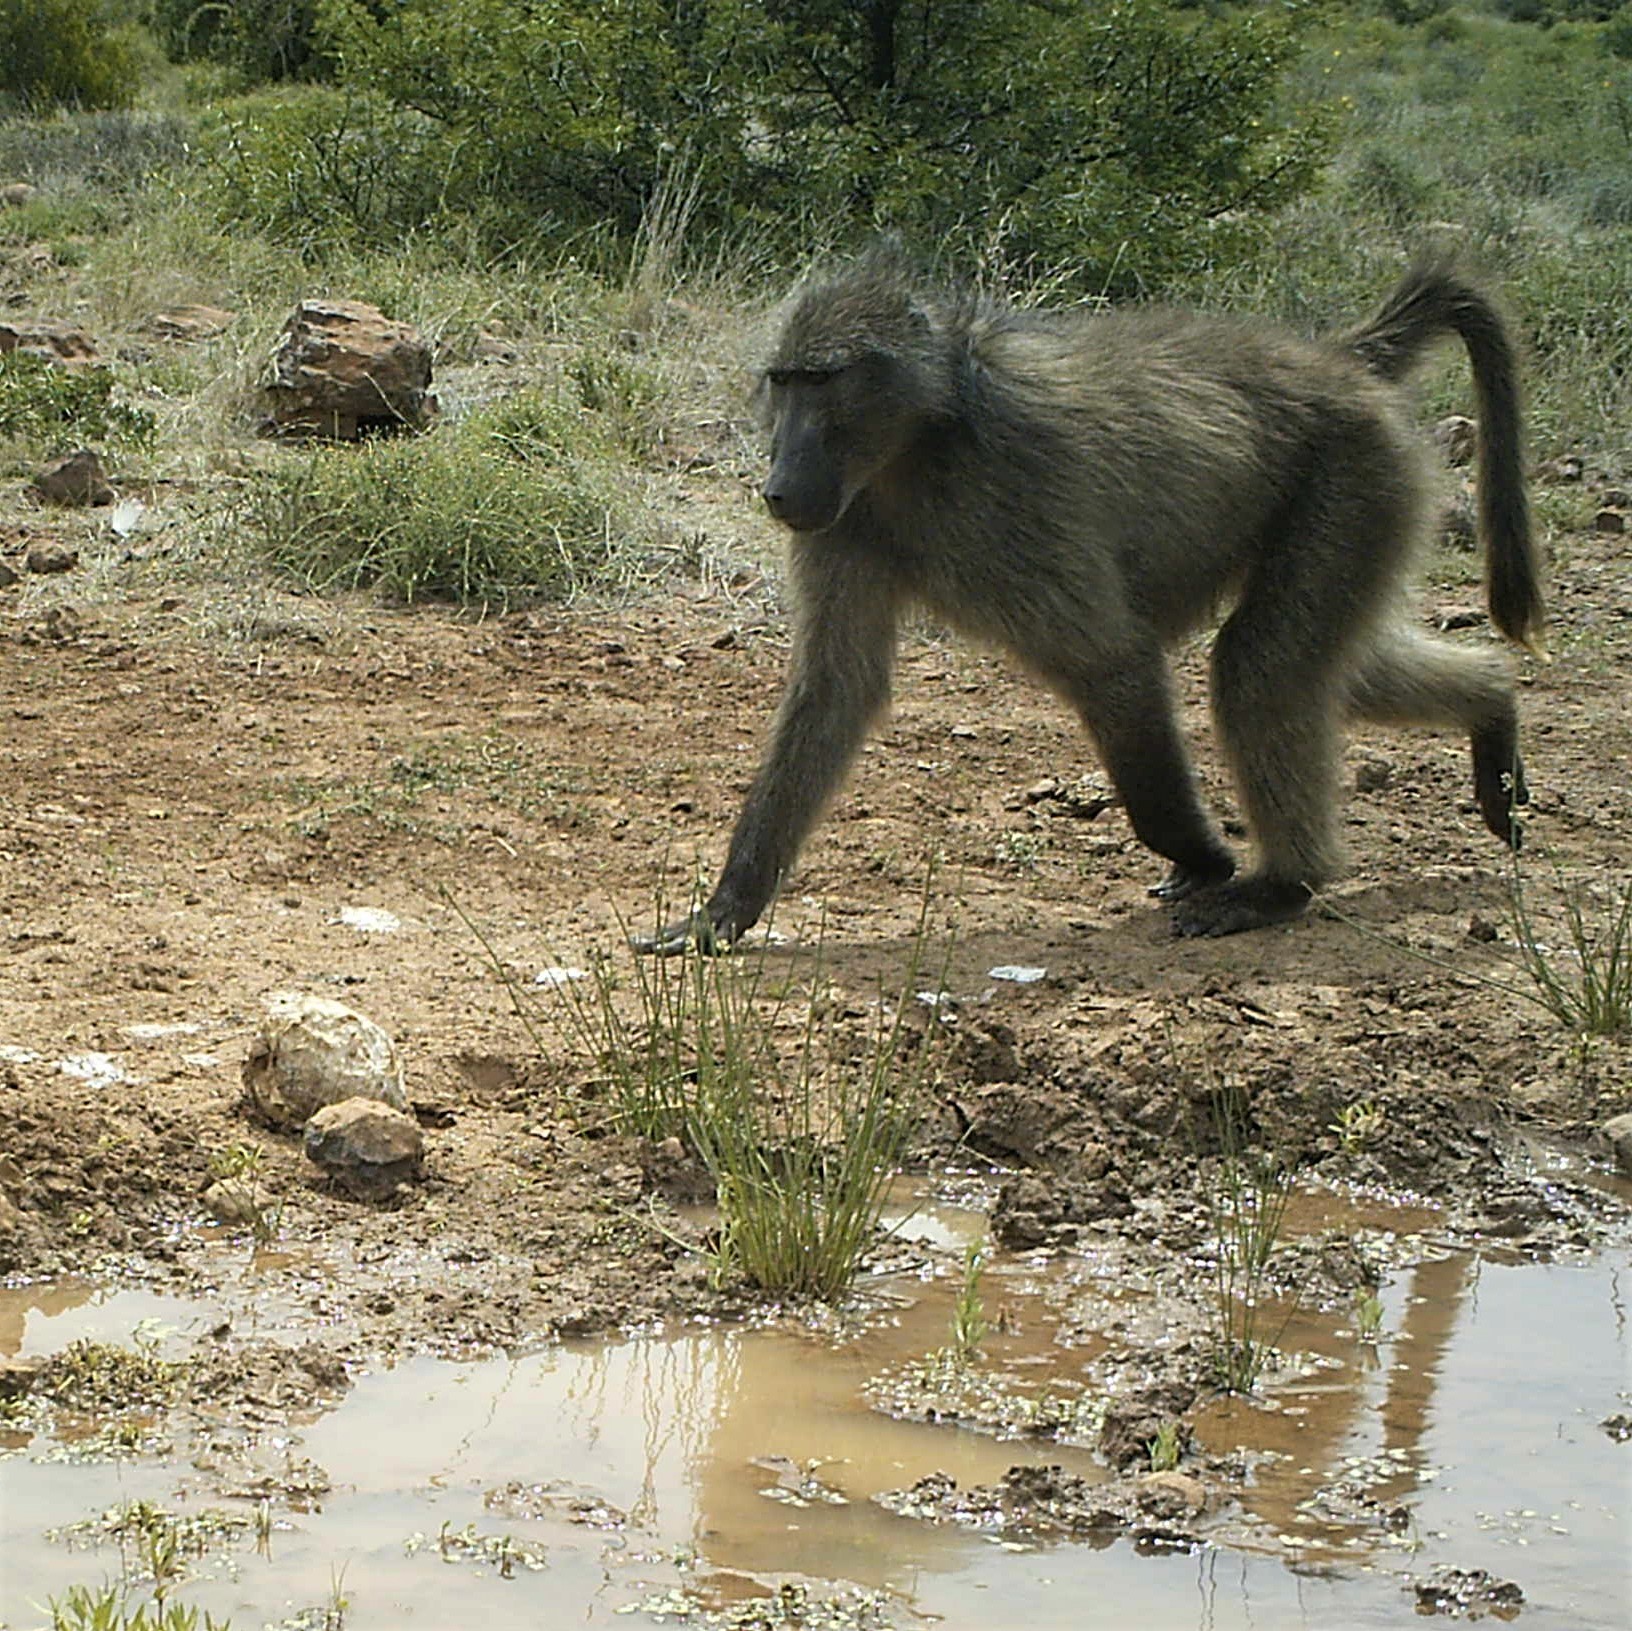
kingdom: Animalia
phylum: Chordata
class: Mammalia
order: Primates
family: Cercopithecidae
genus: Papio
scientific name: Papio ursinus
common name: Chacma baboon
